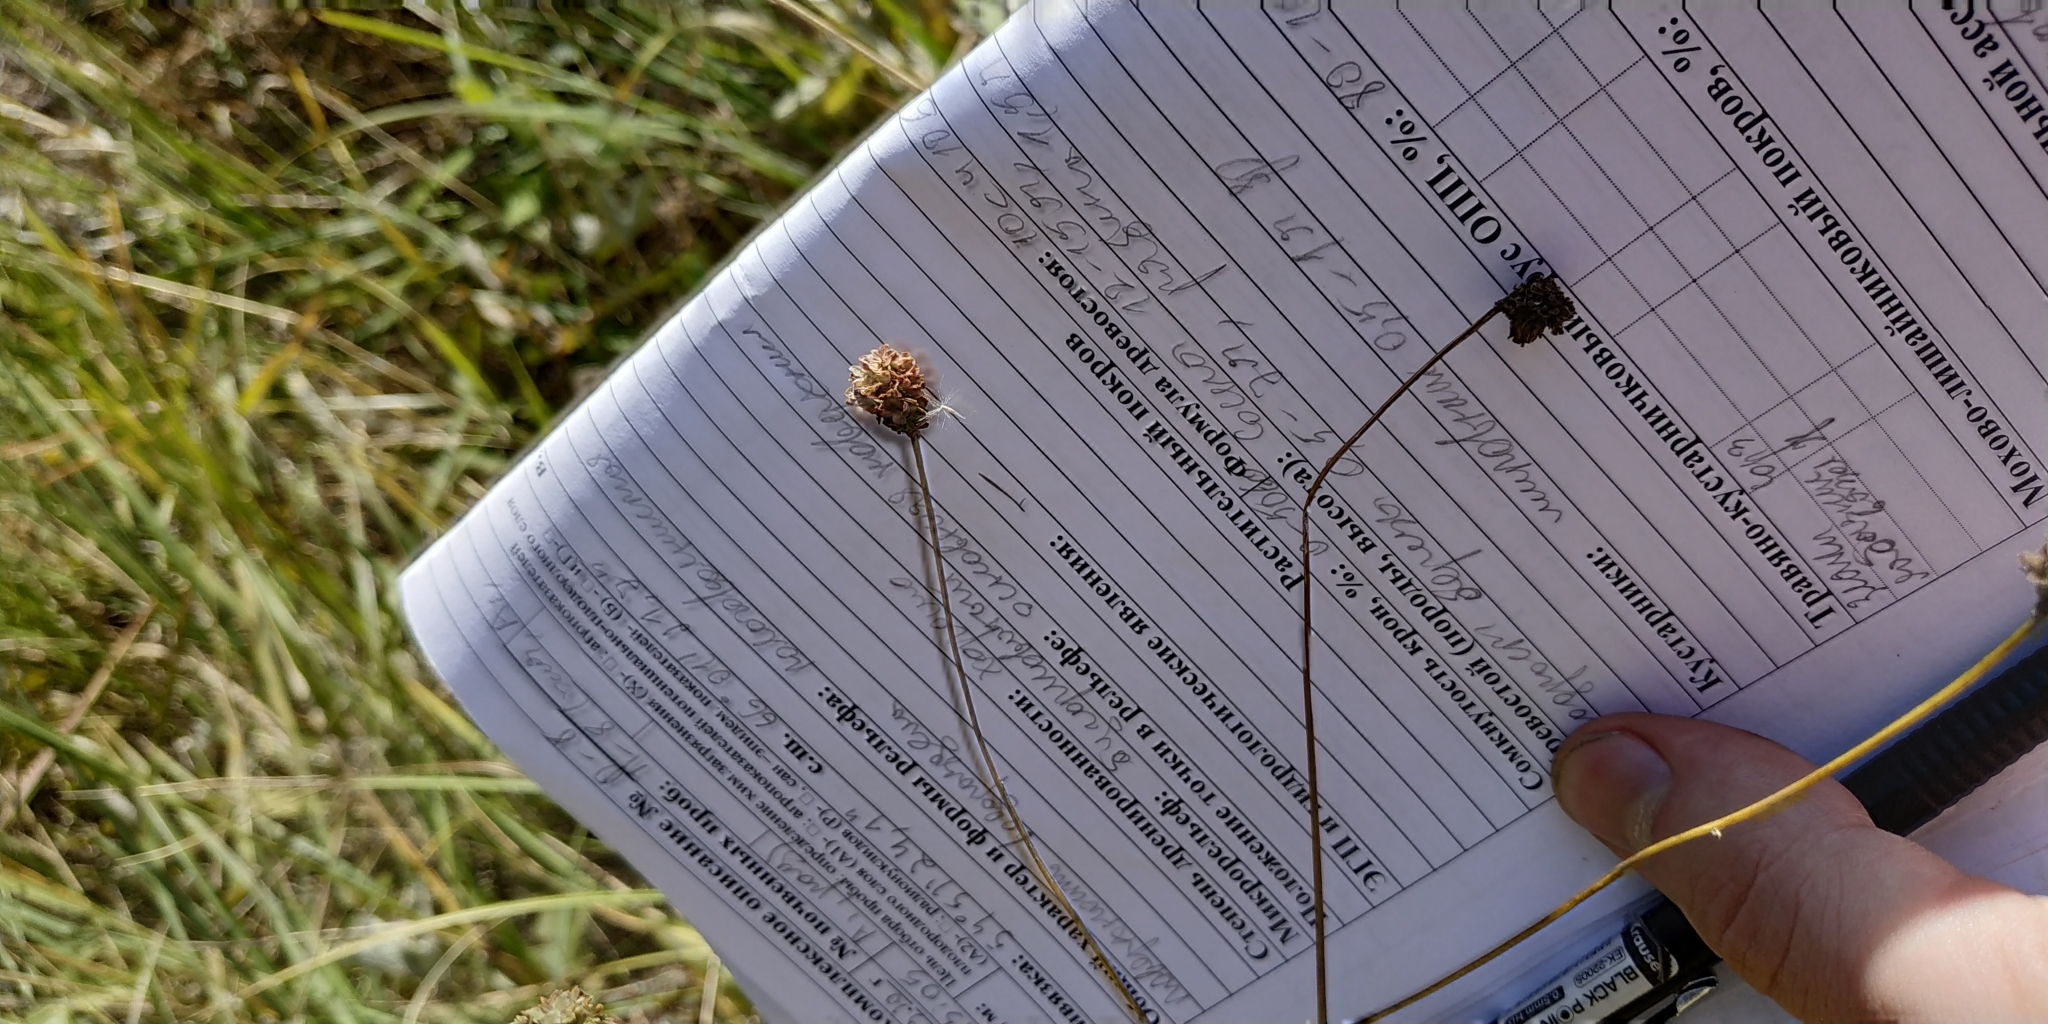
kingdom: Plantae
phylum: Tracheophyta
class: Magnoliopsida
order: Rosales
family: Rosaceae
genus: Sanguisorba
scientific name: Sanguisorba officinalis
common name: Great burnet
